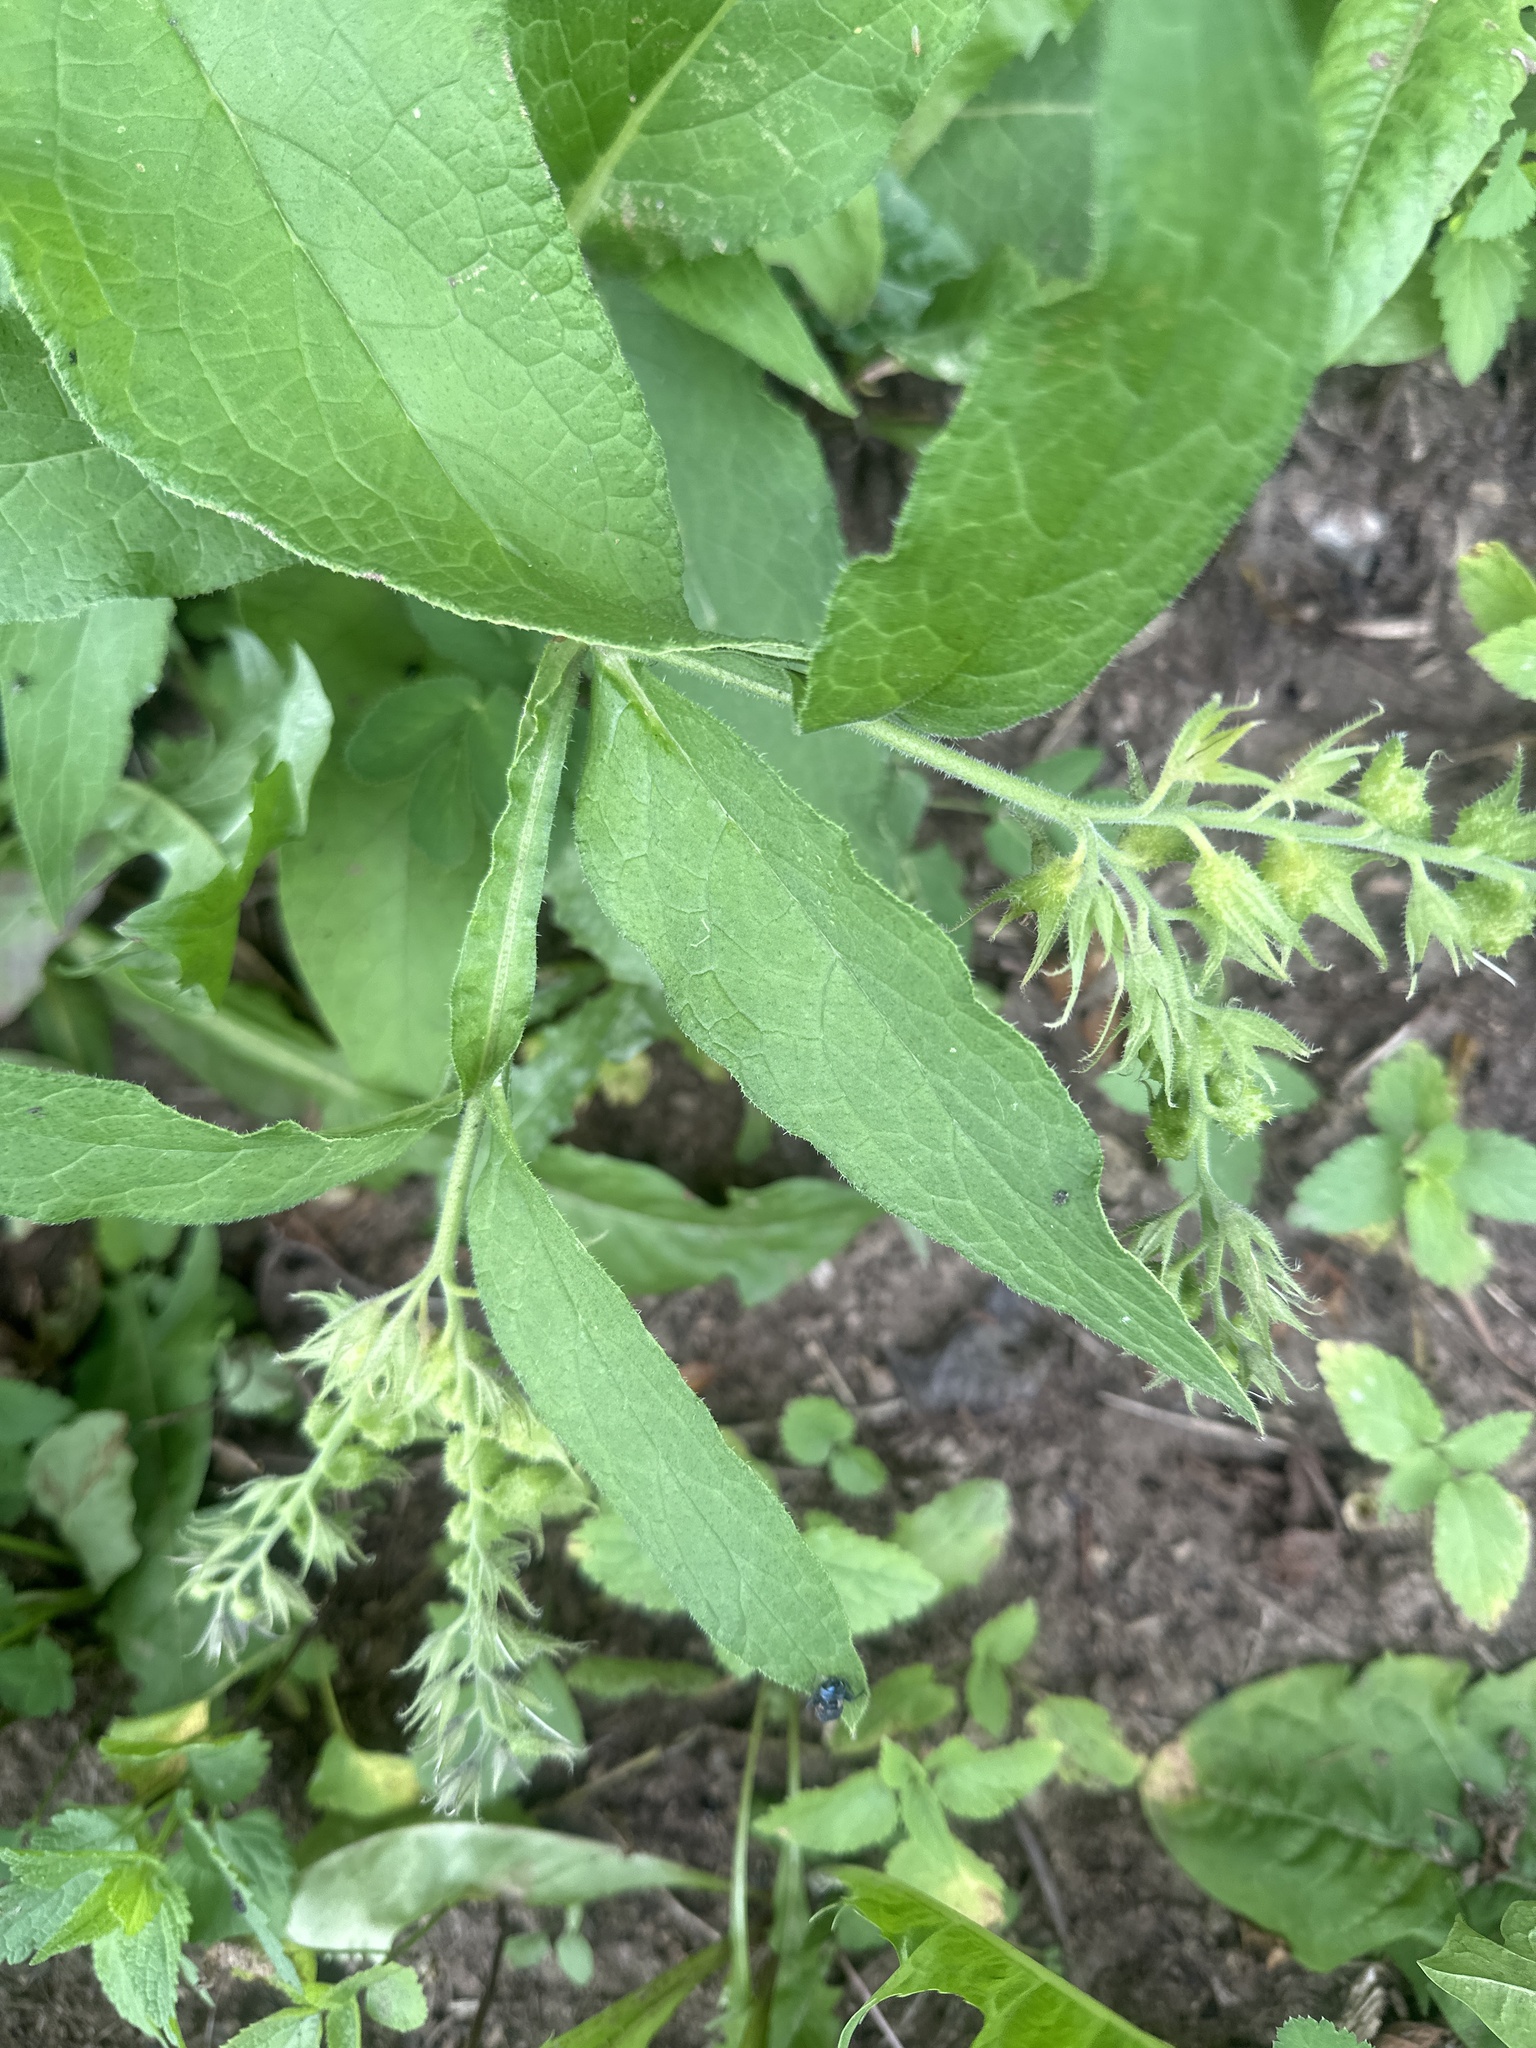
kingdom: Plantae
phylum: Tracheophyta
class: Magnoliopsida
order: Boraginales
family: Boraginaceae
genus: Symphytum
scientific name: Symphytum officinale
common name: Common comfrey
